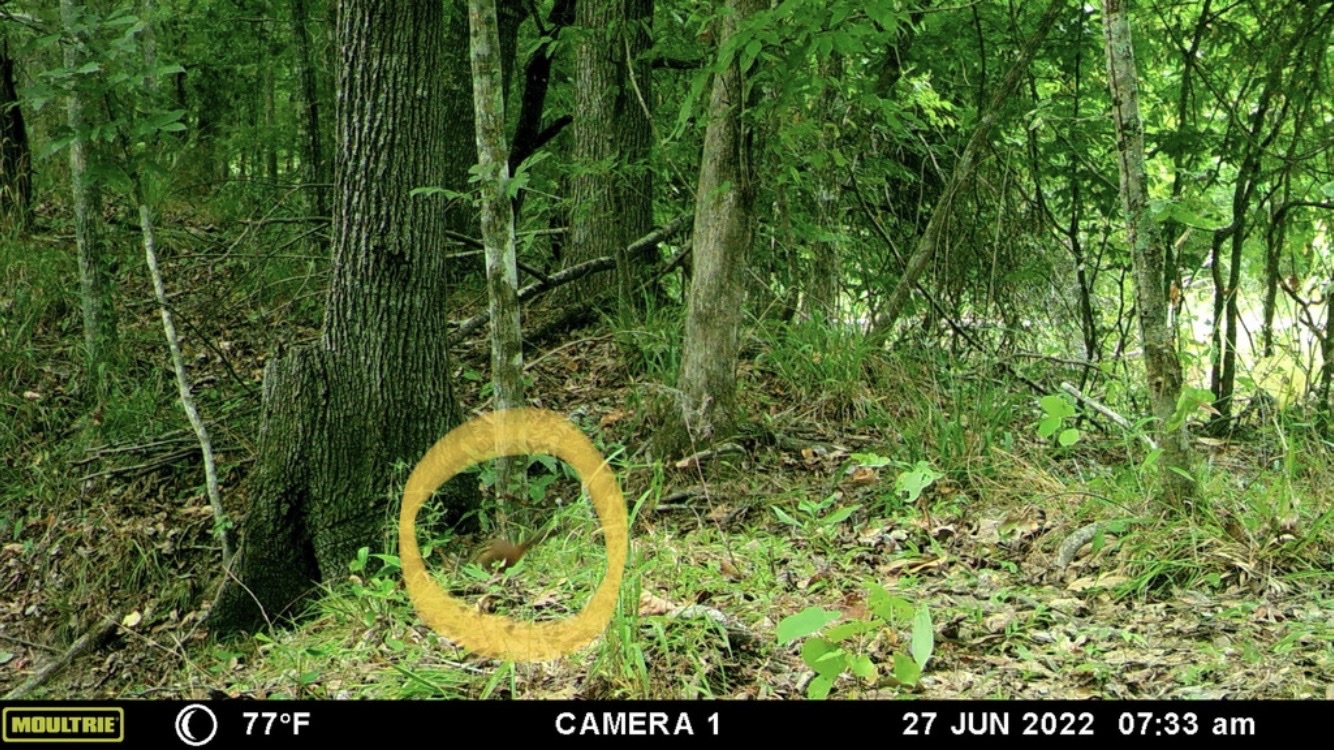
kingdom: Animalia
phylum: Chordata
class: Mammalia
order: Rodentia
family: Sciuridae
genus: Tamias
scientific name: Tamias striatus
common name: Eastern chipmunk
